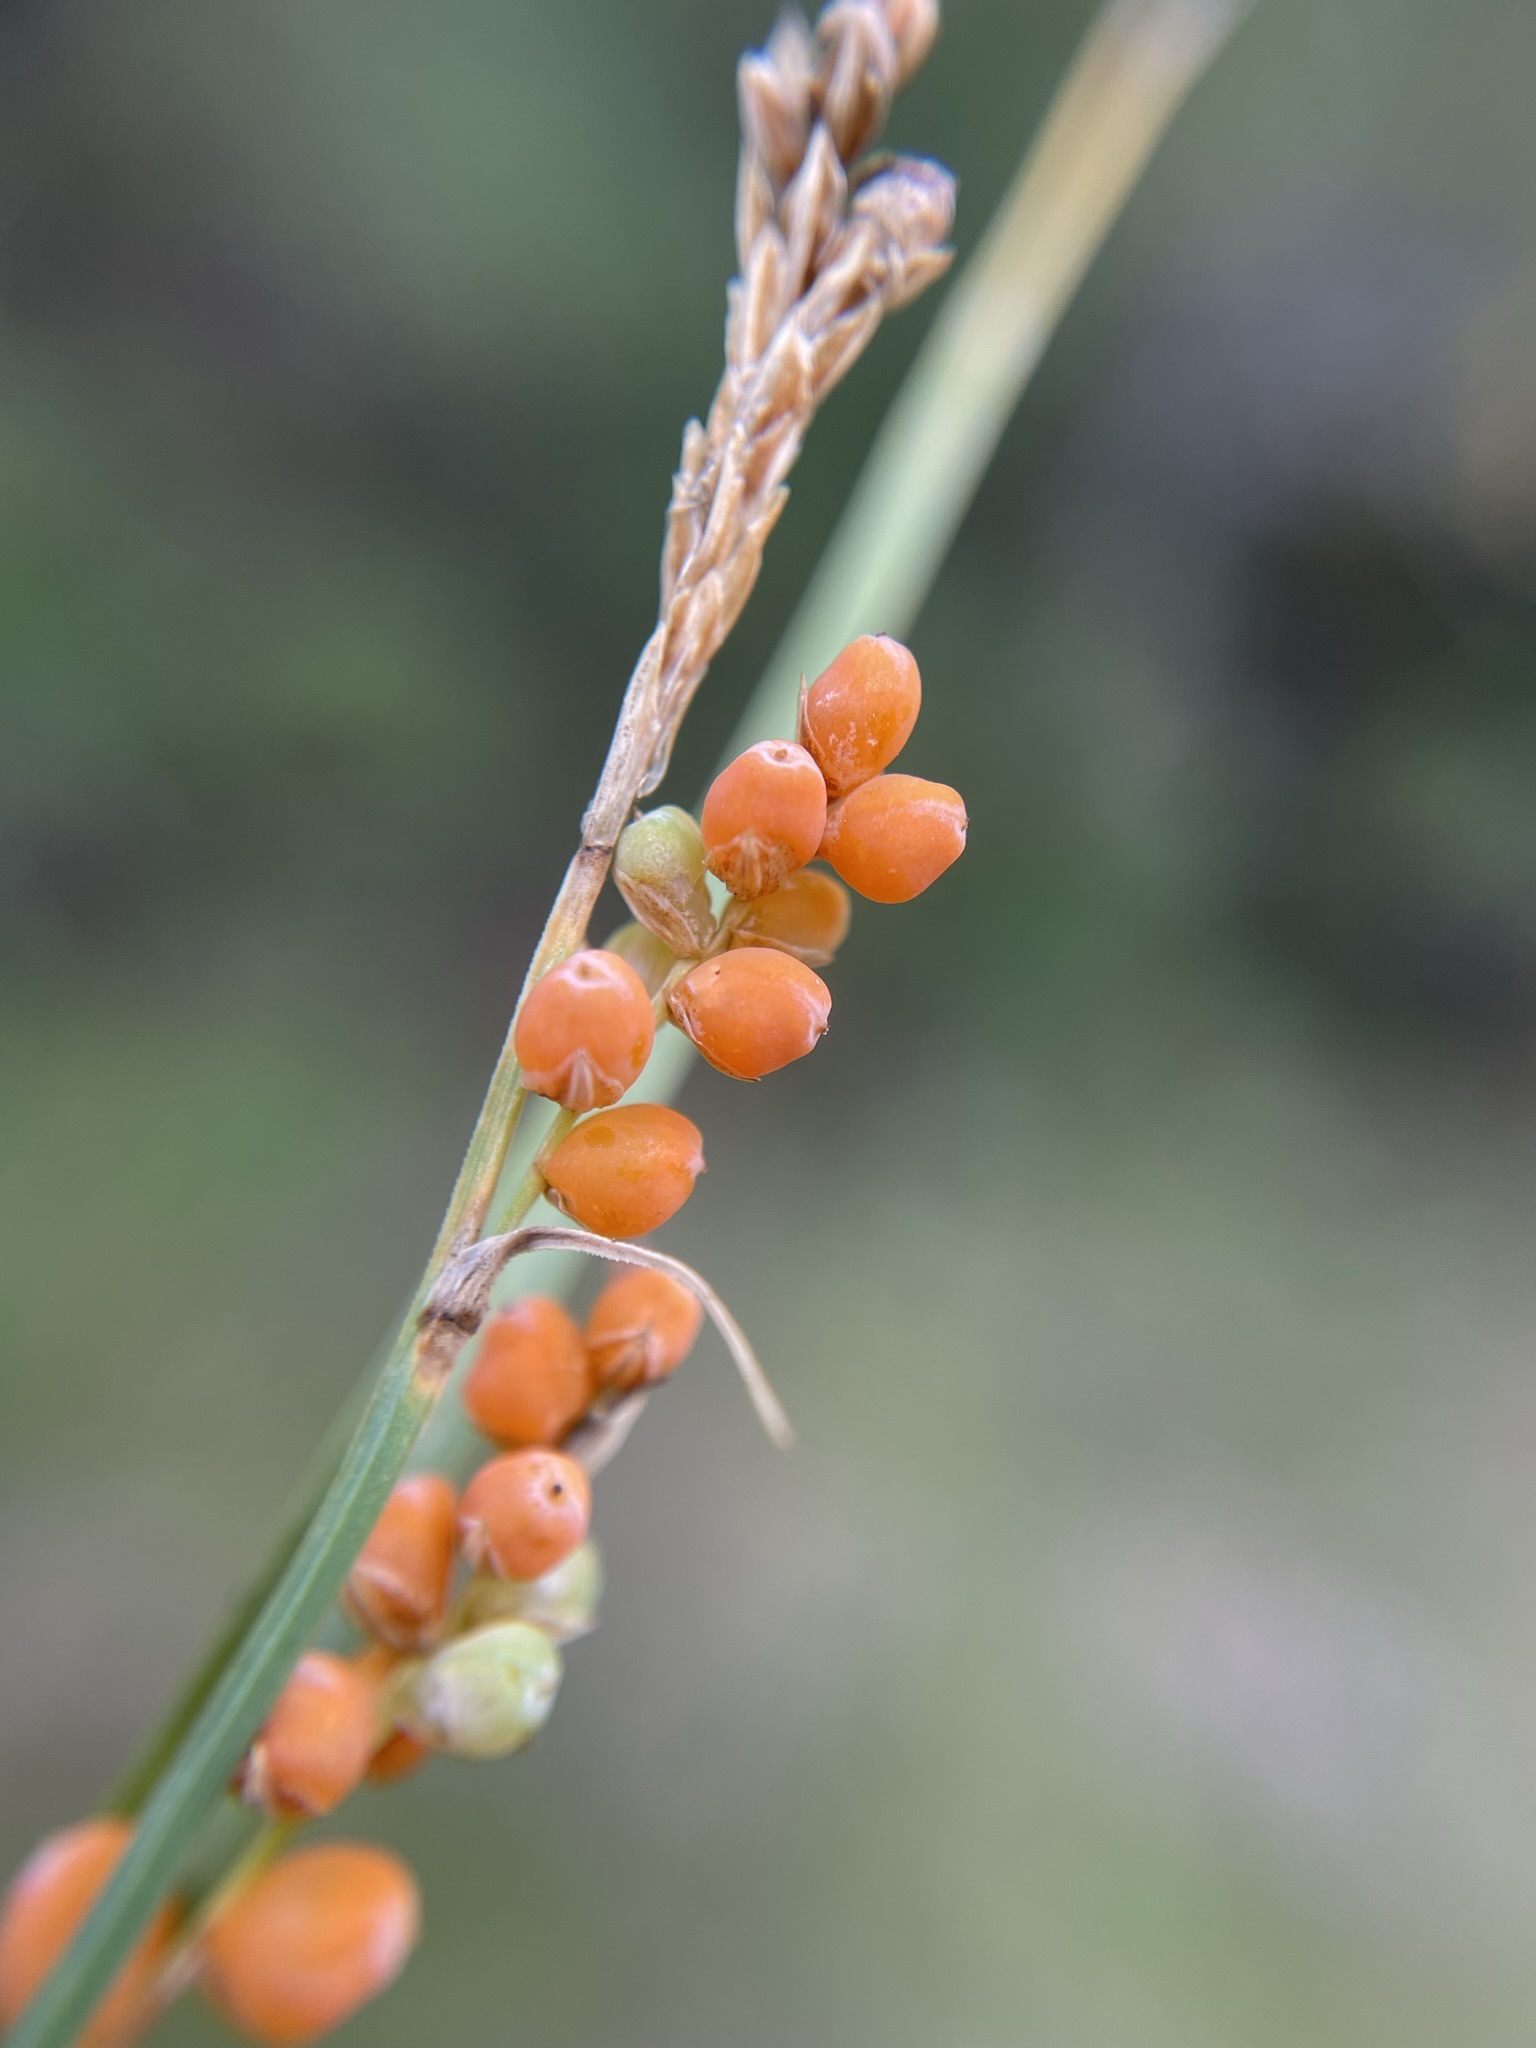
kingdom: Plantae
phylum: Tracheophyta
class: Liliopsida
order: Poales
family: Cyperaceae
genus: Carex
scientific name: Carex aurea
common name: Golden sedge
